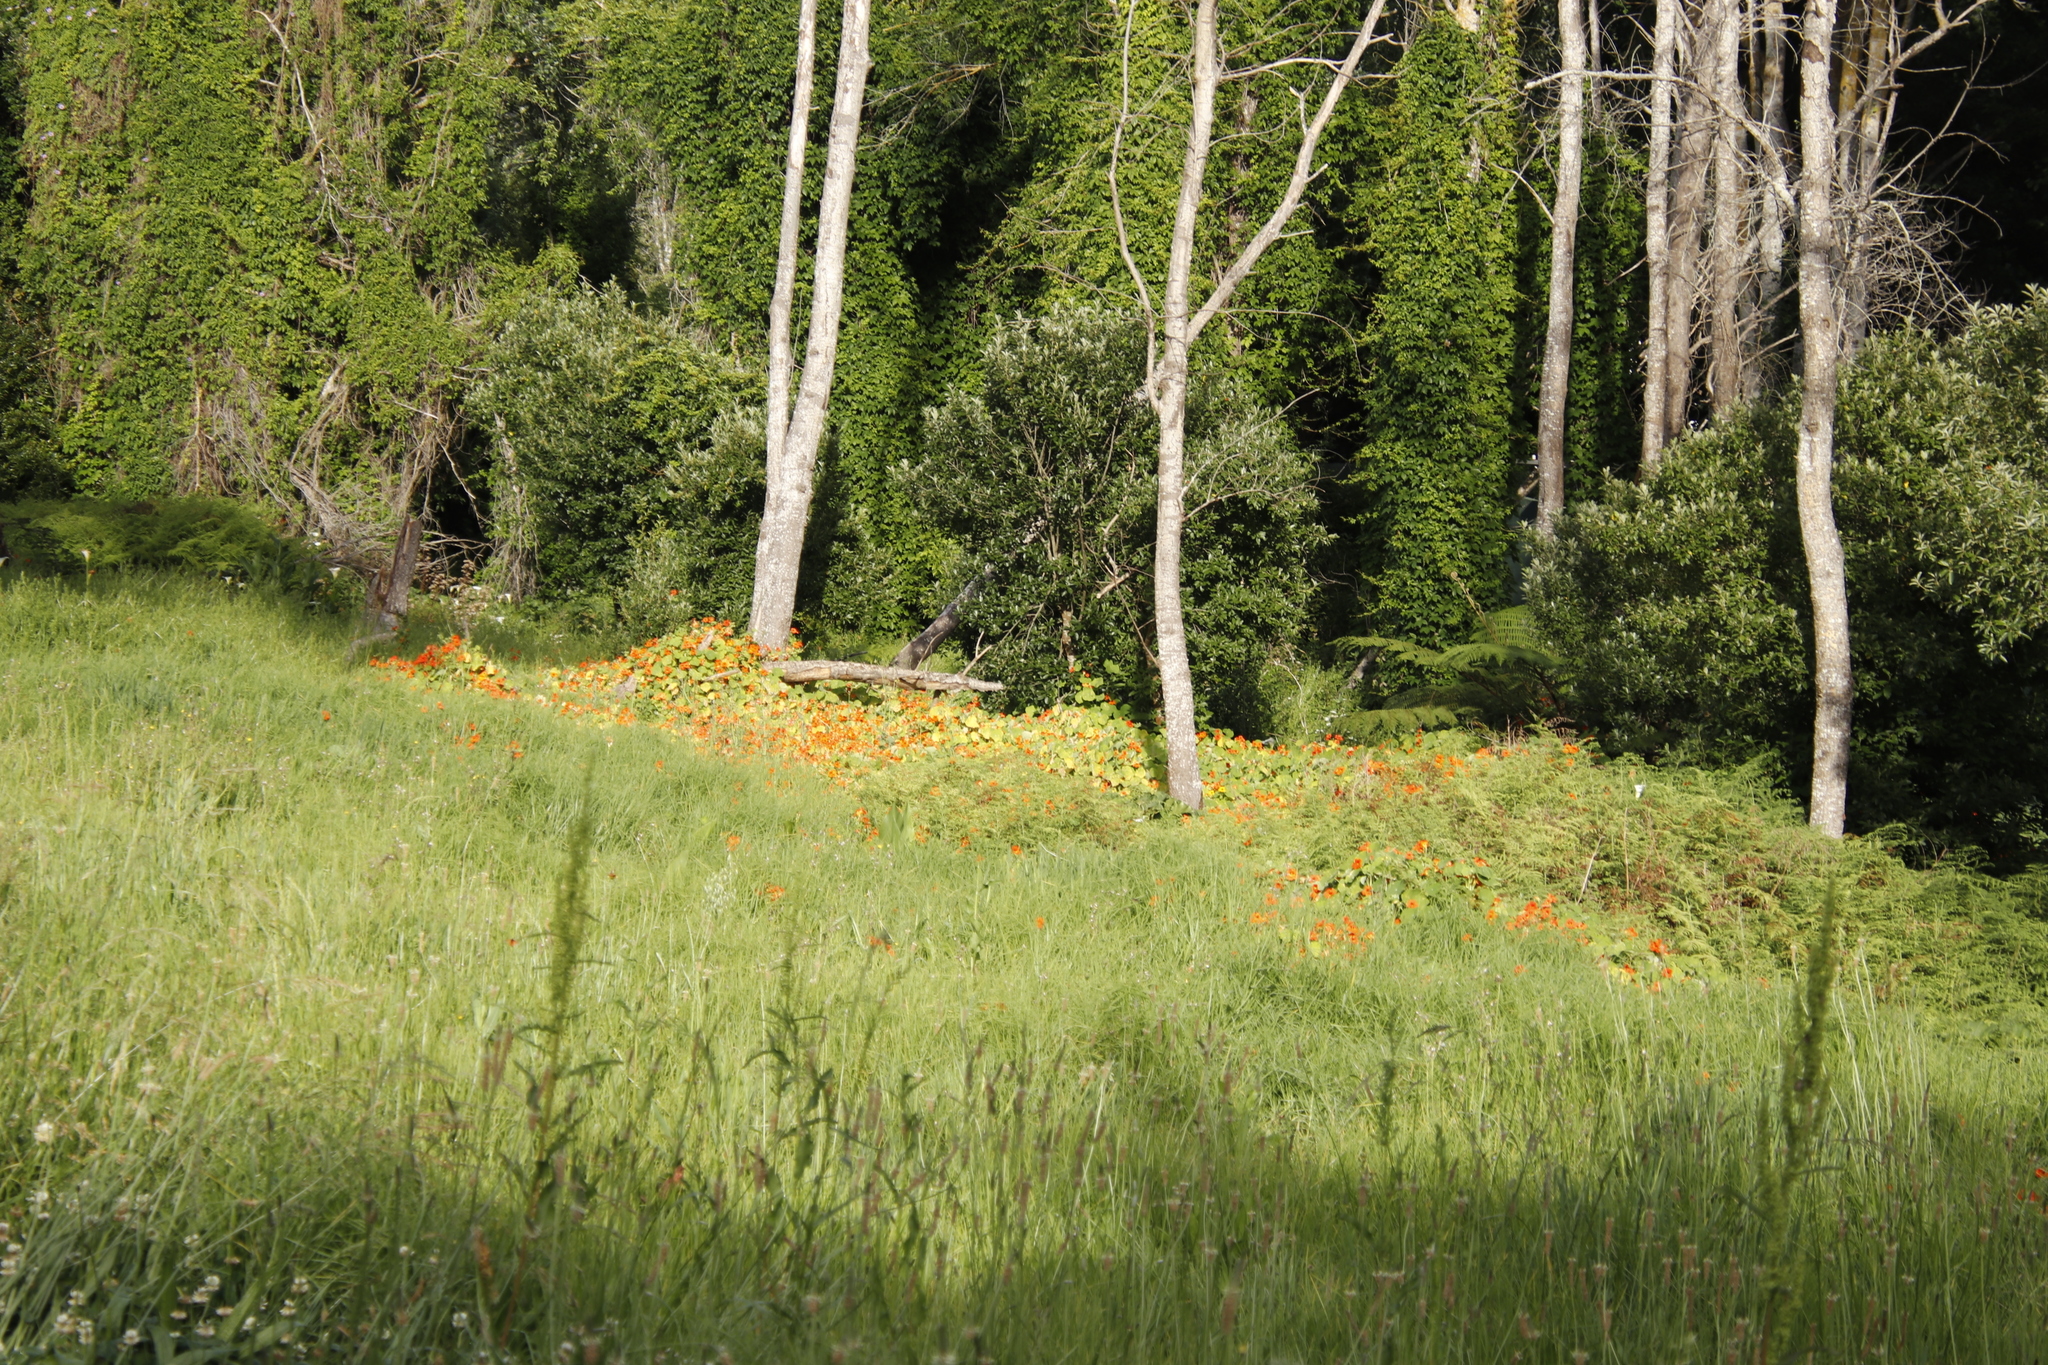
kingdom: Plantae
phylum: Tracheophyta
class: Magnoliopsida
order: Brassicales
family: Tropaeolaceae
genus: Tropaeolum
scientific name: Tropaeolum majus
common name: Nasturtium
